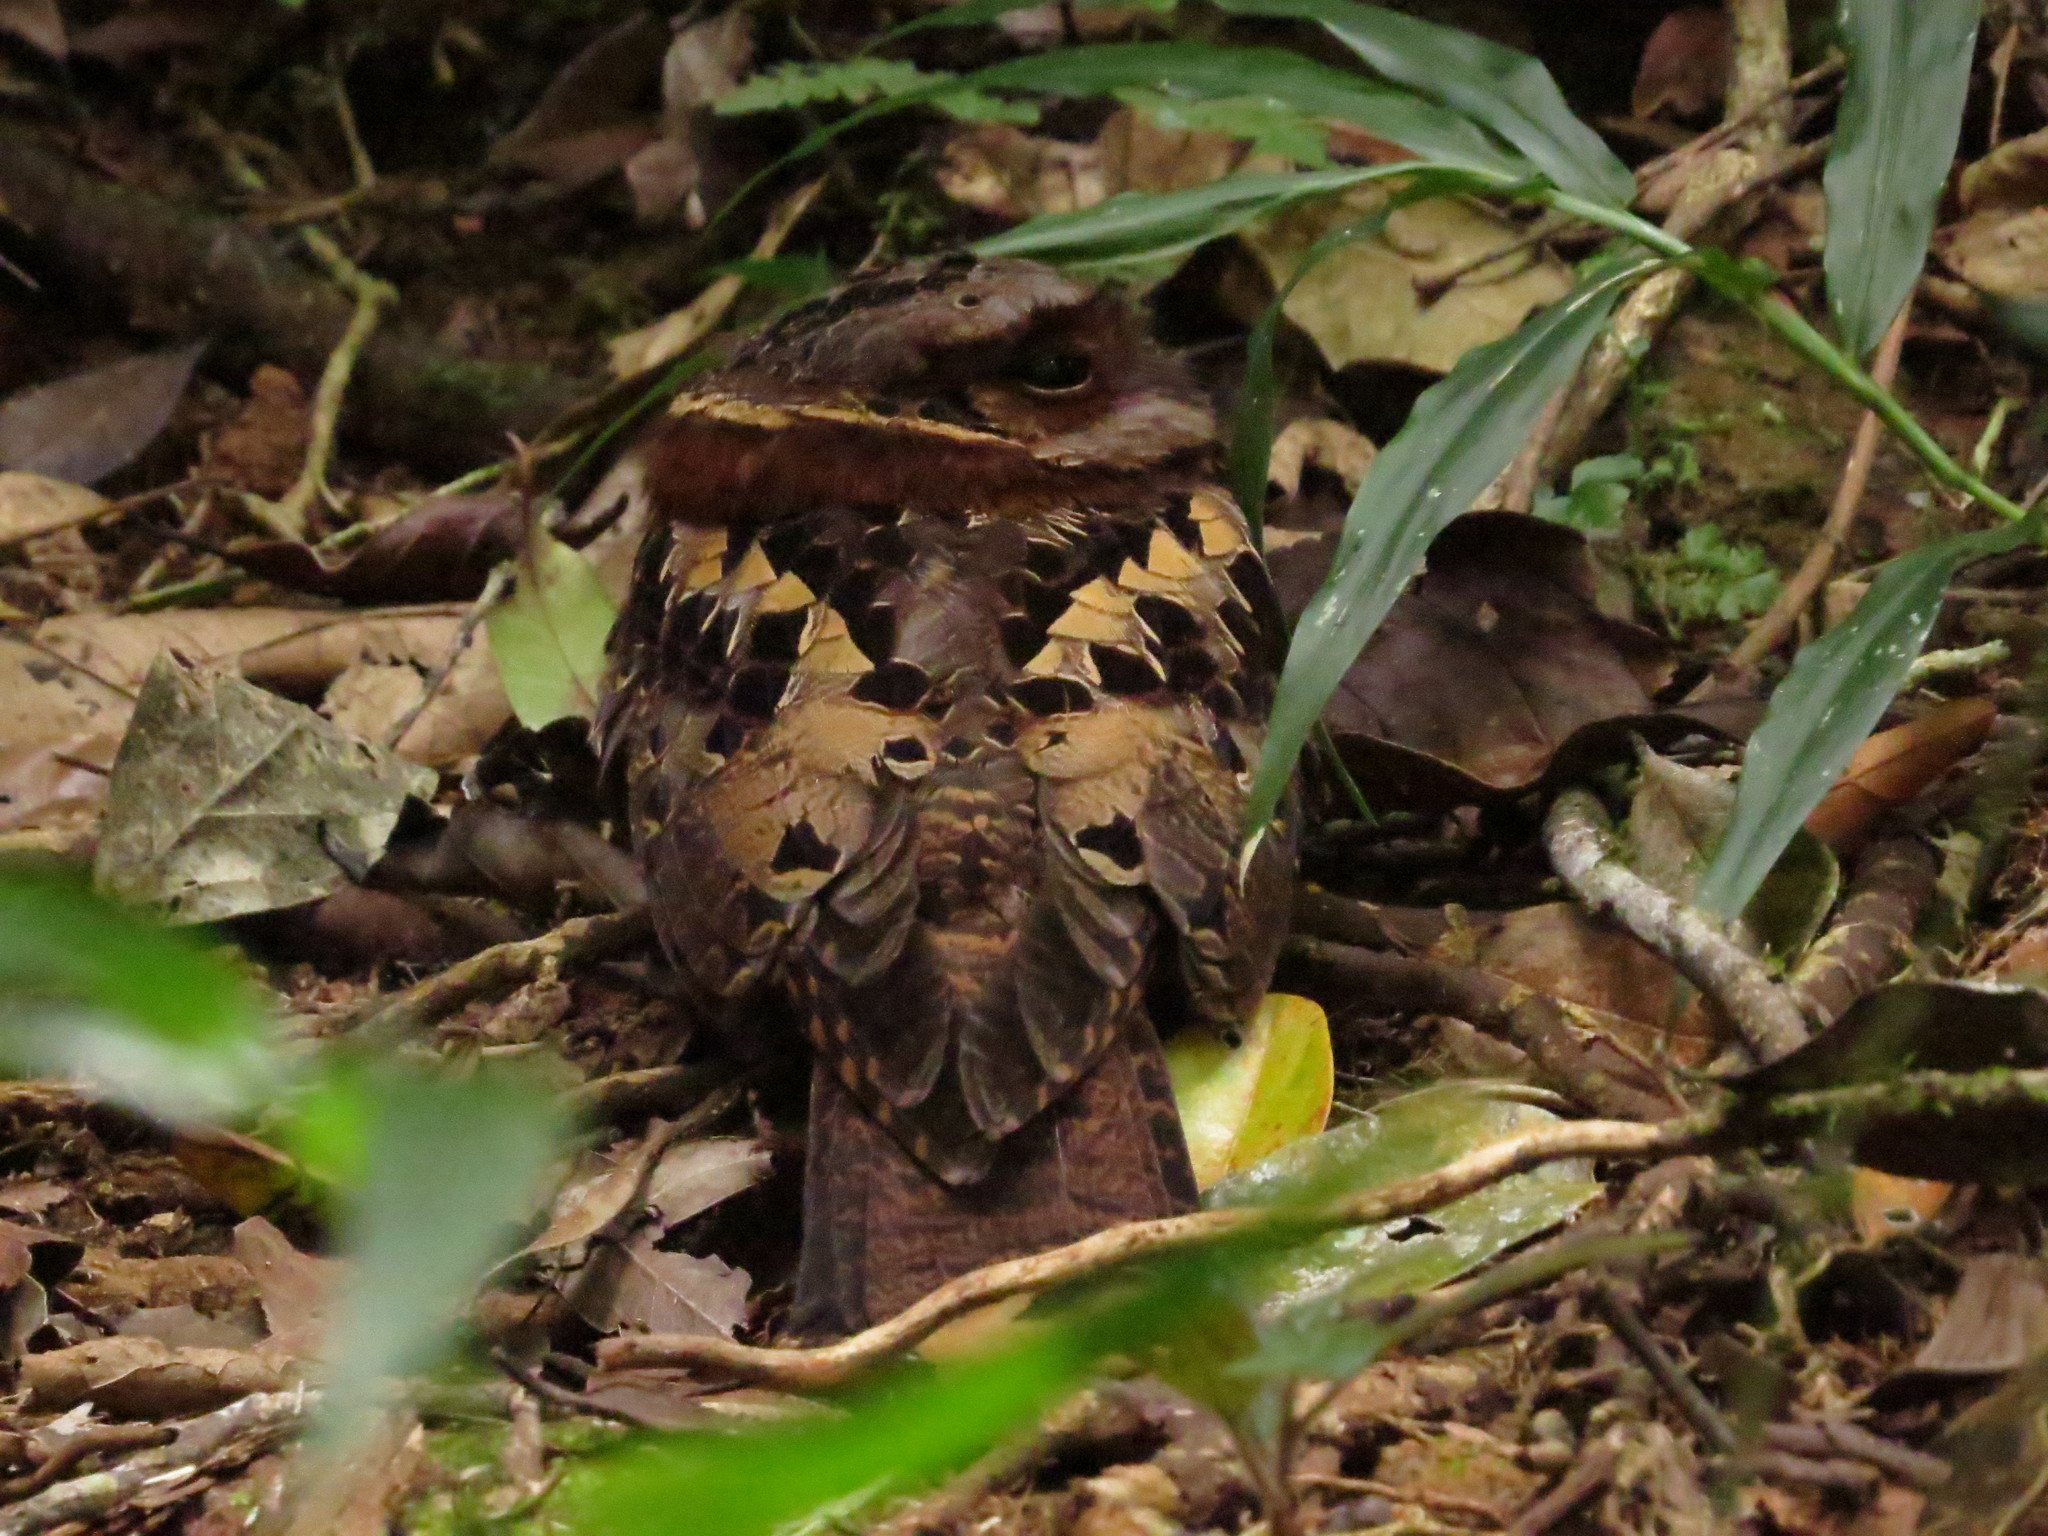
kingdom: Animalia
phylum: Chordata
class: Aves
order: Caprimulgiformes
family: Caprimulgidae
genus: Gactornis
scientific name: Gactornis enarratus
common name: Collared nightjar
